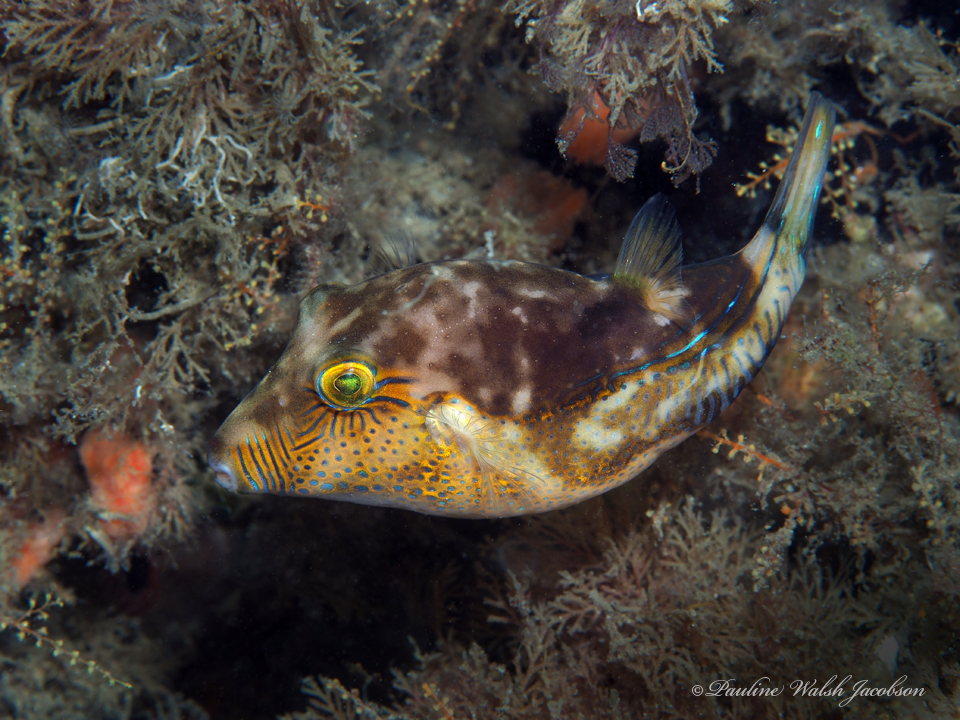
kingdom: Animalia
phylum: Chordata
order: Tetraodontiformes
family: Tetraodontidae
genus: Canthigaster
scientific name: Canthigaster rostrata
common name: Caribbean sharpnose-puffer
